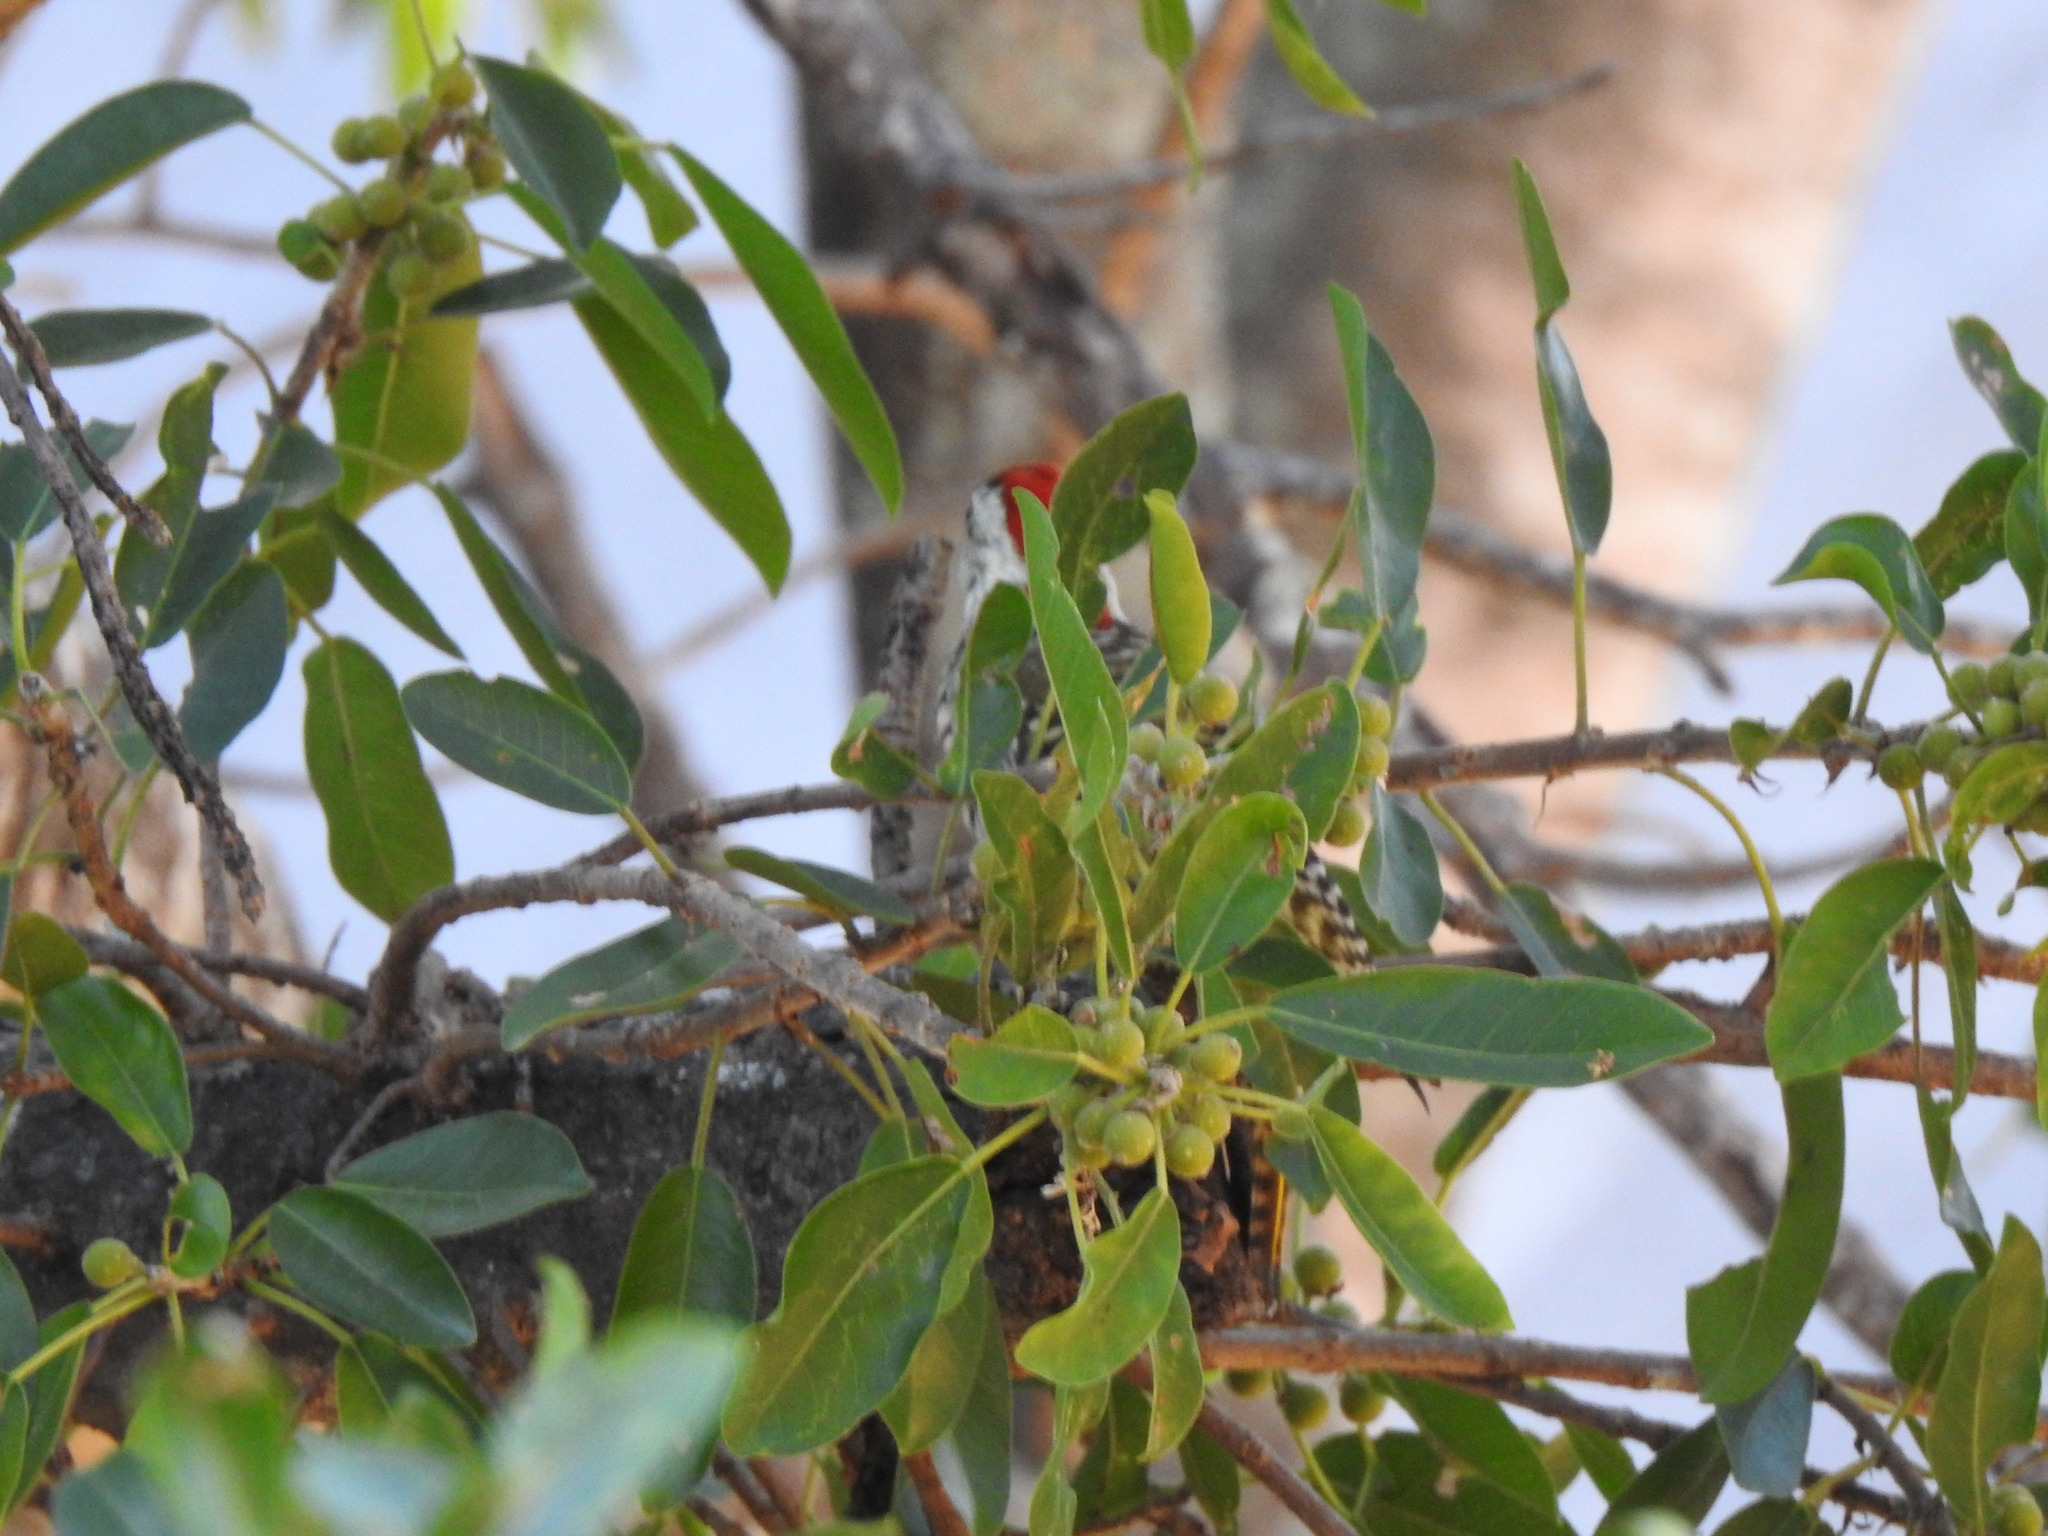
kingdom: Animalia
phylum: Chordata
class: Aves
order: Piciformes
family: Picidae
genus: Dendropicos
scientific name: Dendropicos fuscescens
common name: Cardinal woodpecker
